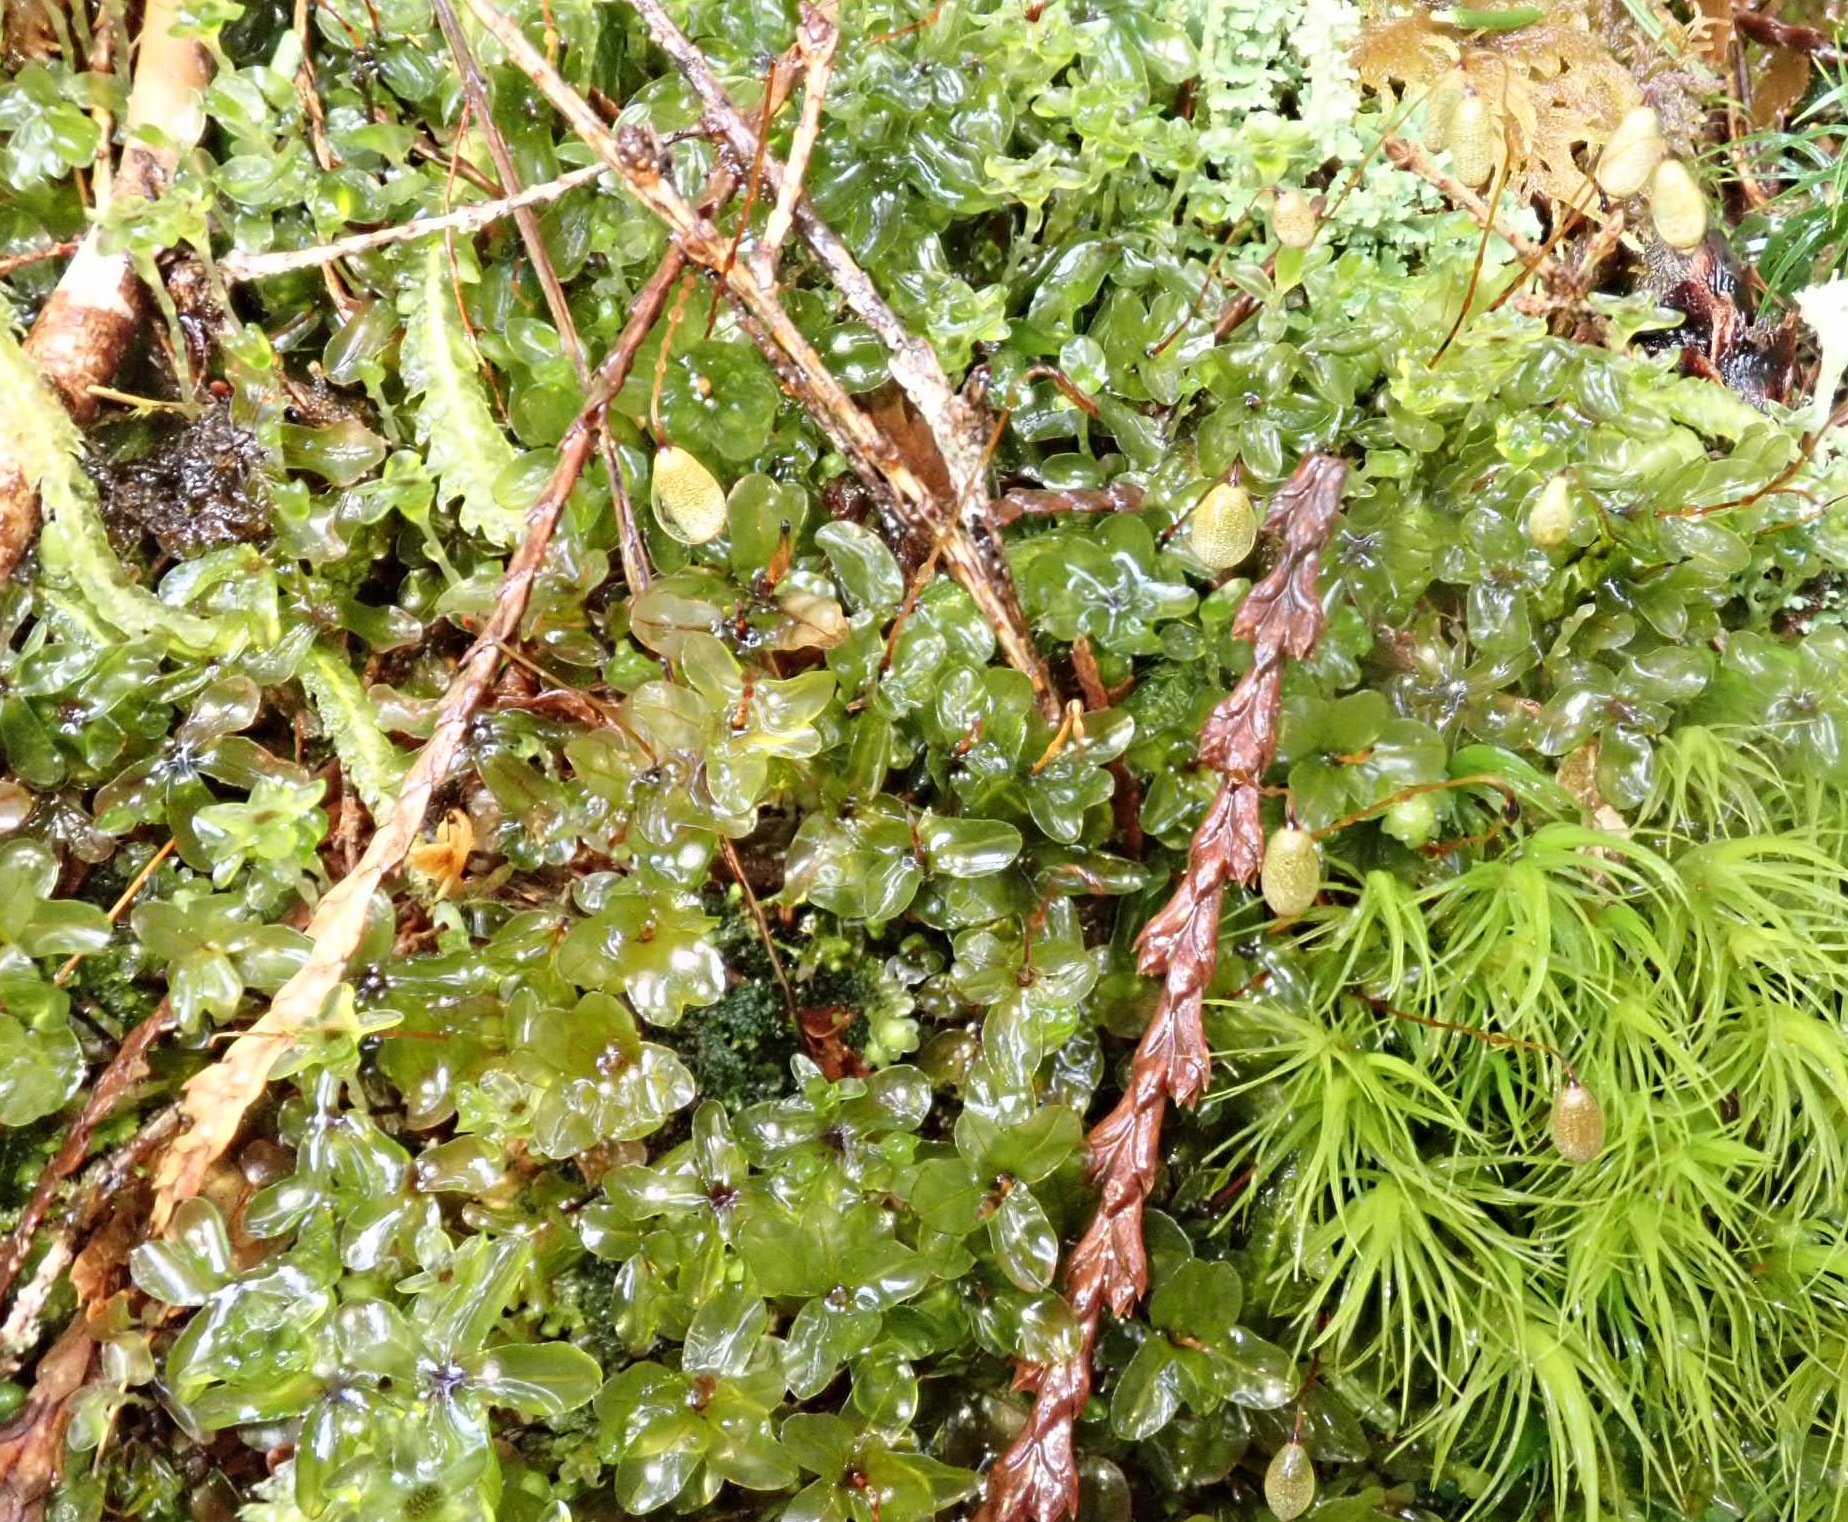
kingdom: Plantae
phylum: Bryophyta
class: Bryopsida
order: Bryales
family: Mniaceae
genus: Rhizomnium
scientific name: Rhizomnium glabrescens
